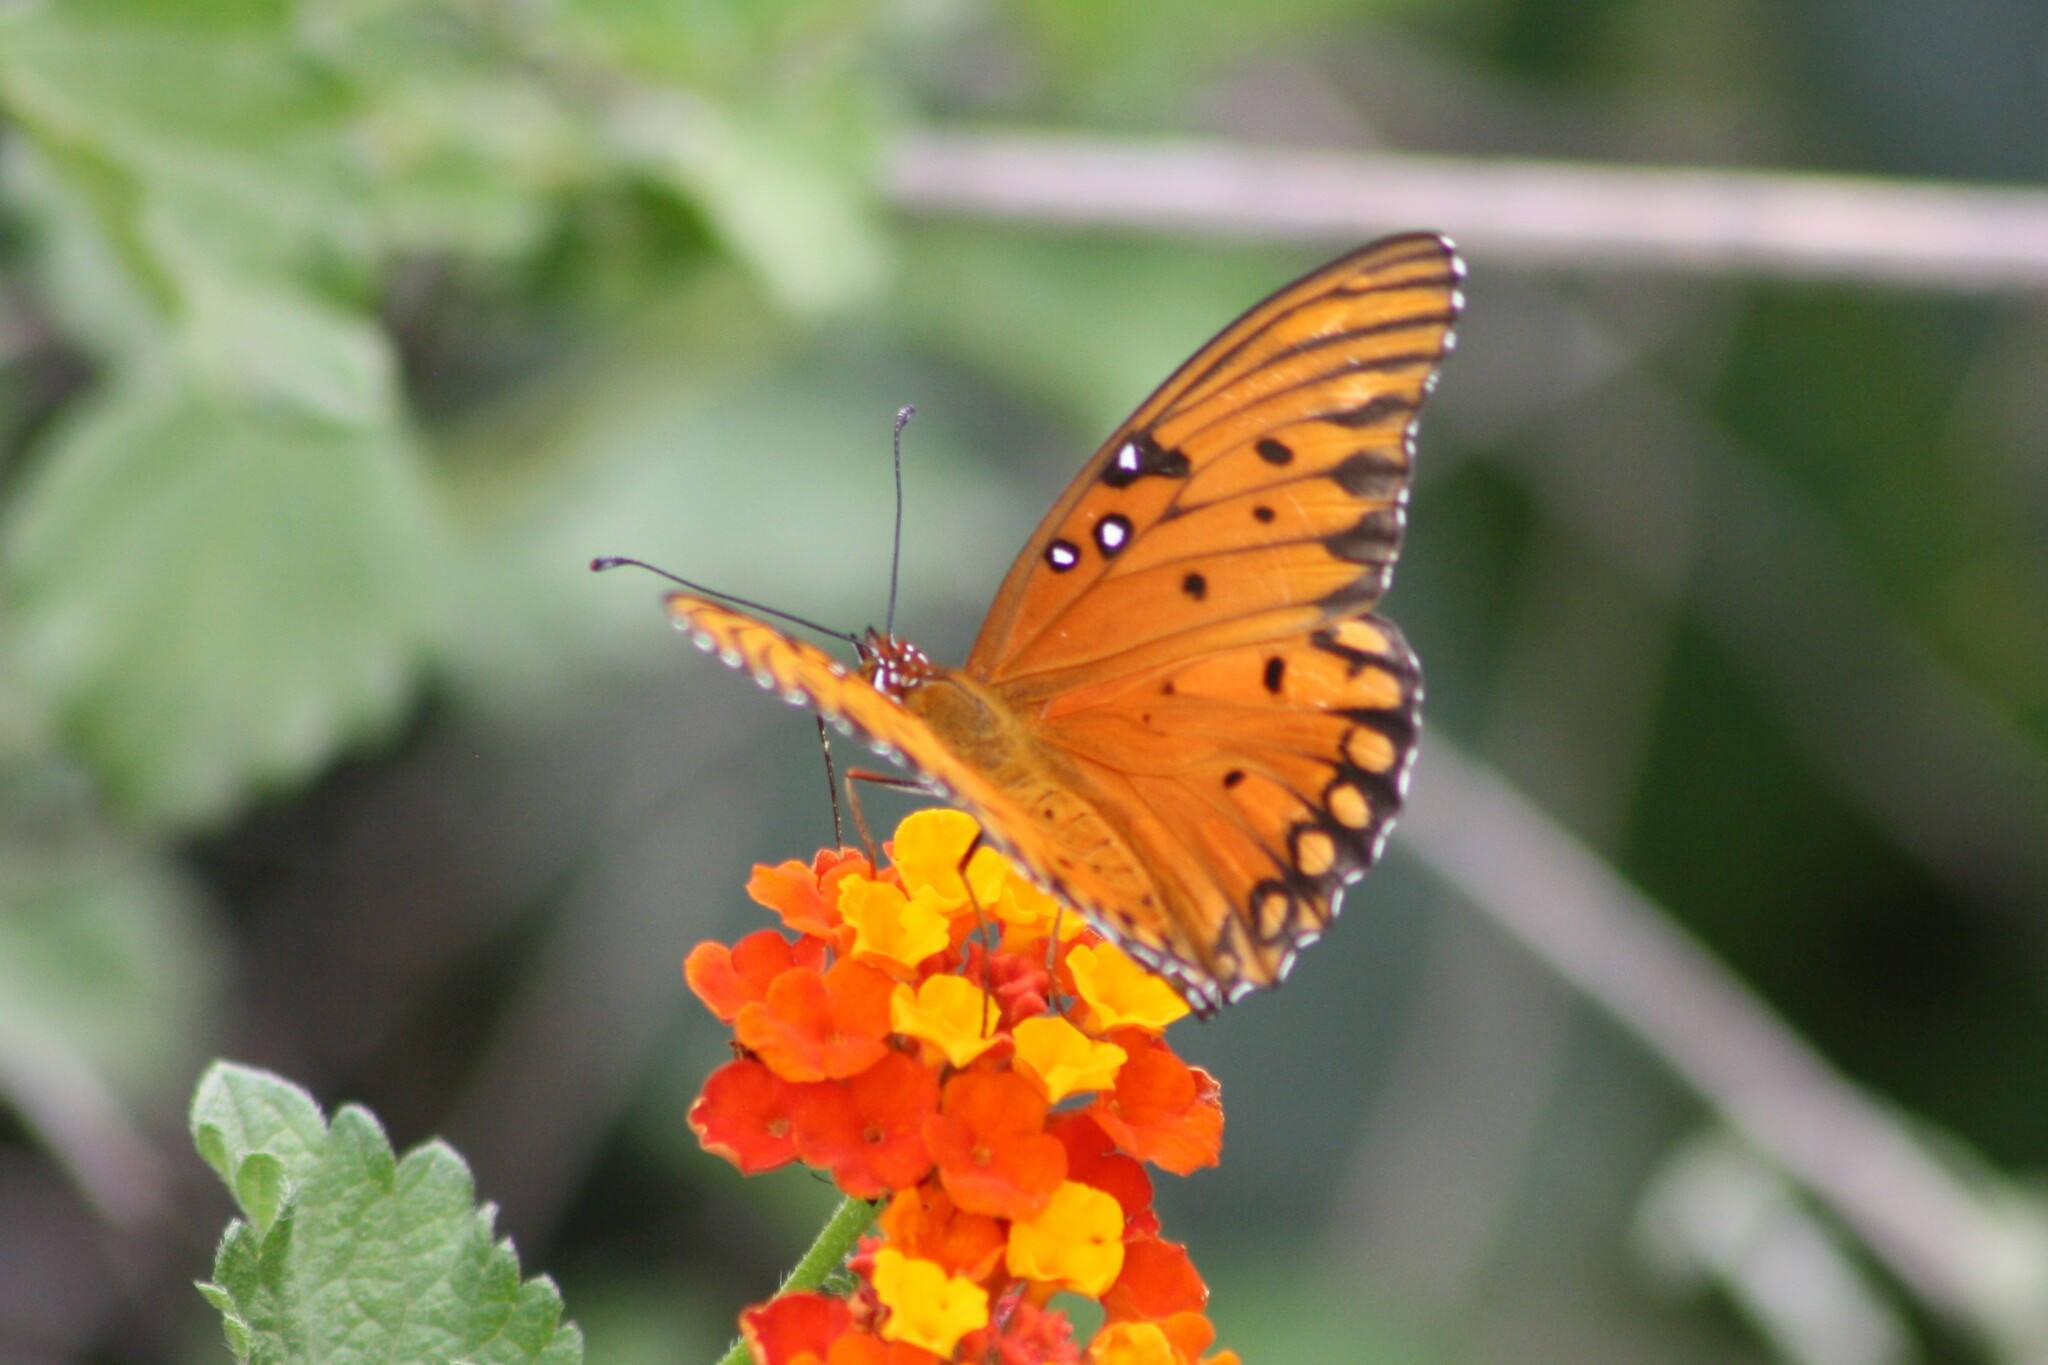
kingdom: Animalia
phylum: Arthropoda
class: Insecta
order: Lepidoptera
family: Nymphalidae
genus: Dione
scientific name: Dione vanillae
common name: Gulf fritillary
